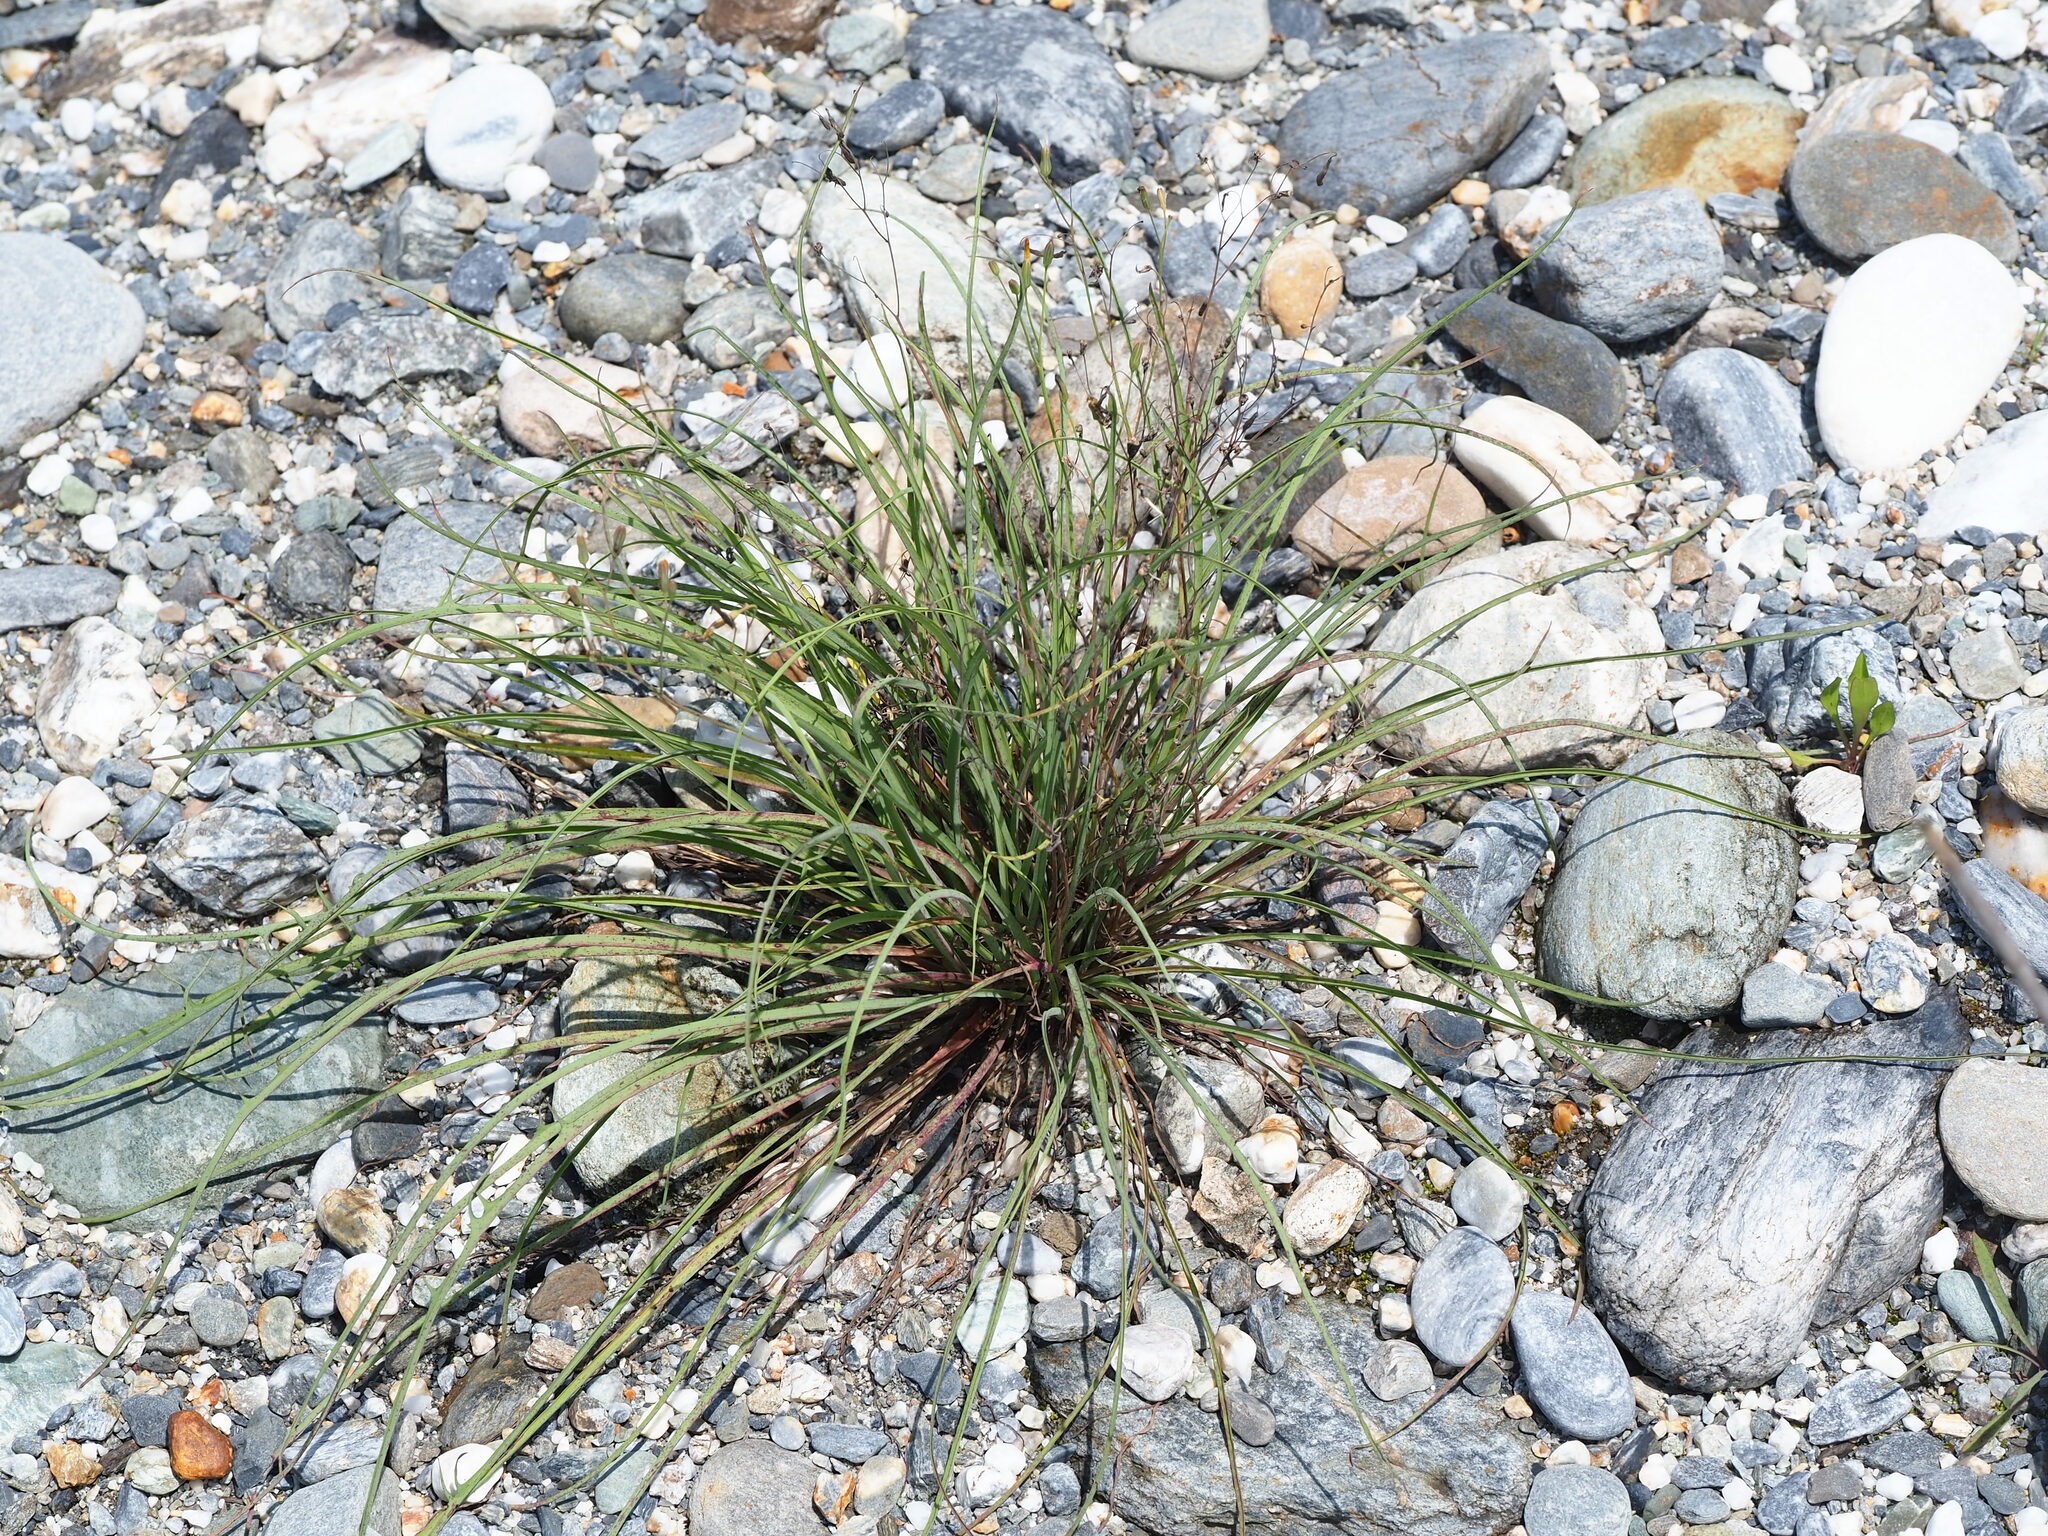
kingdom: Plantae
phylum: Tracheophyta
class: Magnoliopsida
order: Asterales
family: Asteraceae
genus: Ixeris
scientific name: Ixeris tamagawaensis
